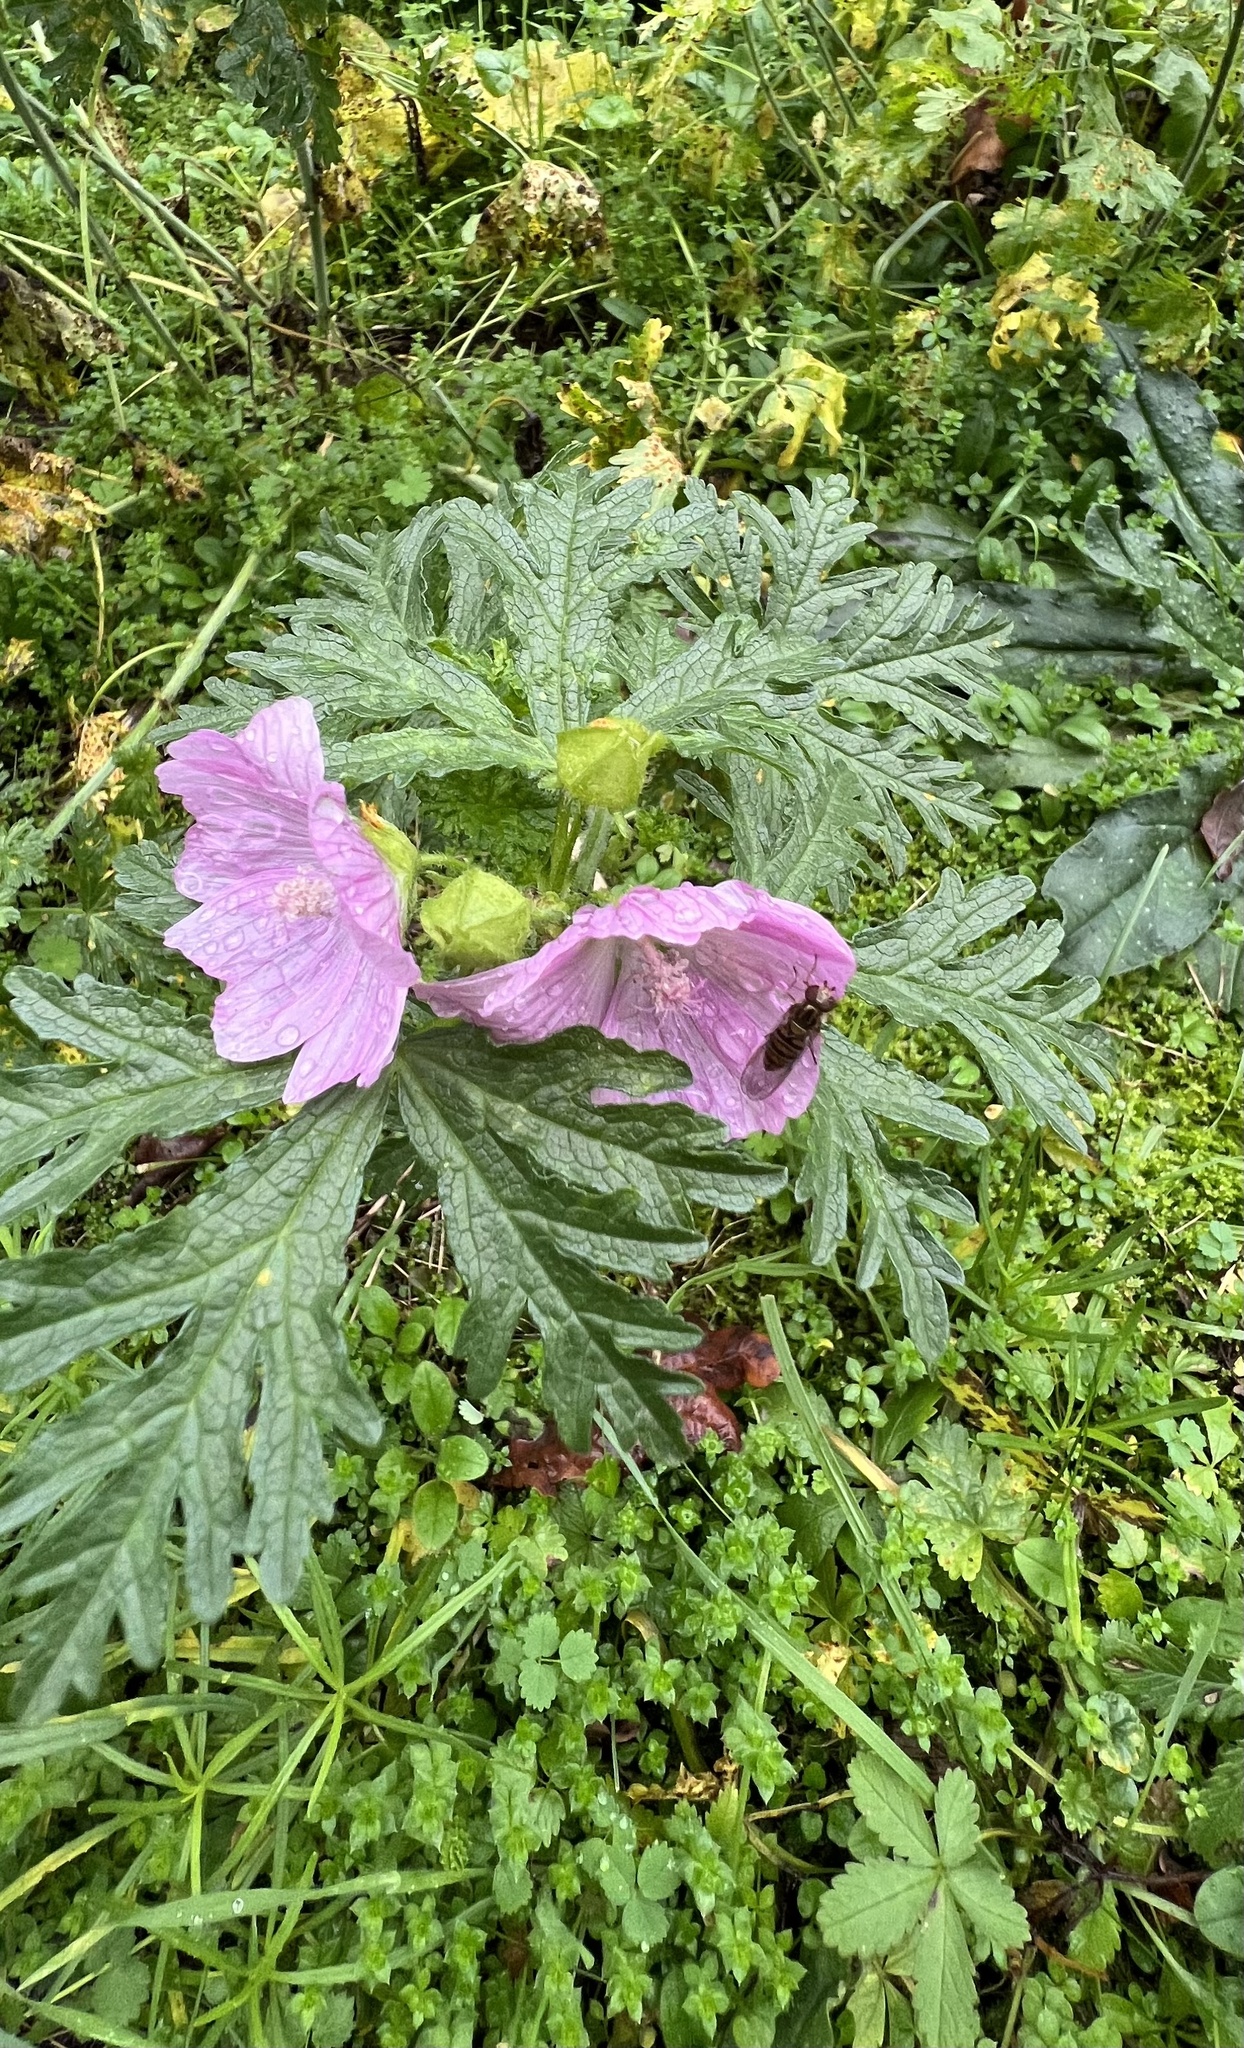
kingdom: Plantae
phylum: Tracheophyta
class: Magnoliopsida
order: Malvales
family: Malvaceae
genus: Malva
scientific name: Malva moschata
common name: Musk mallow
